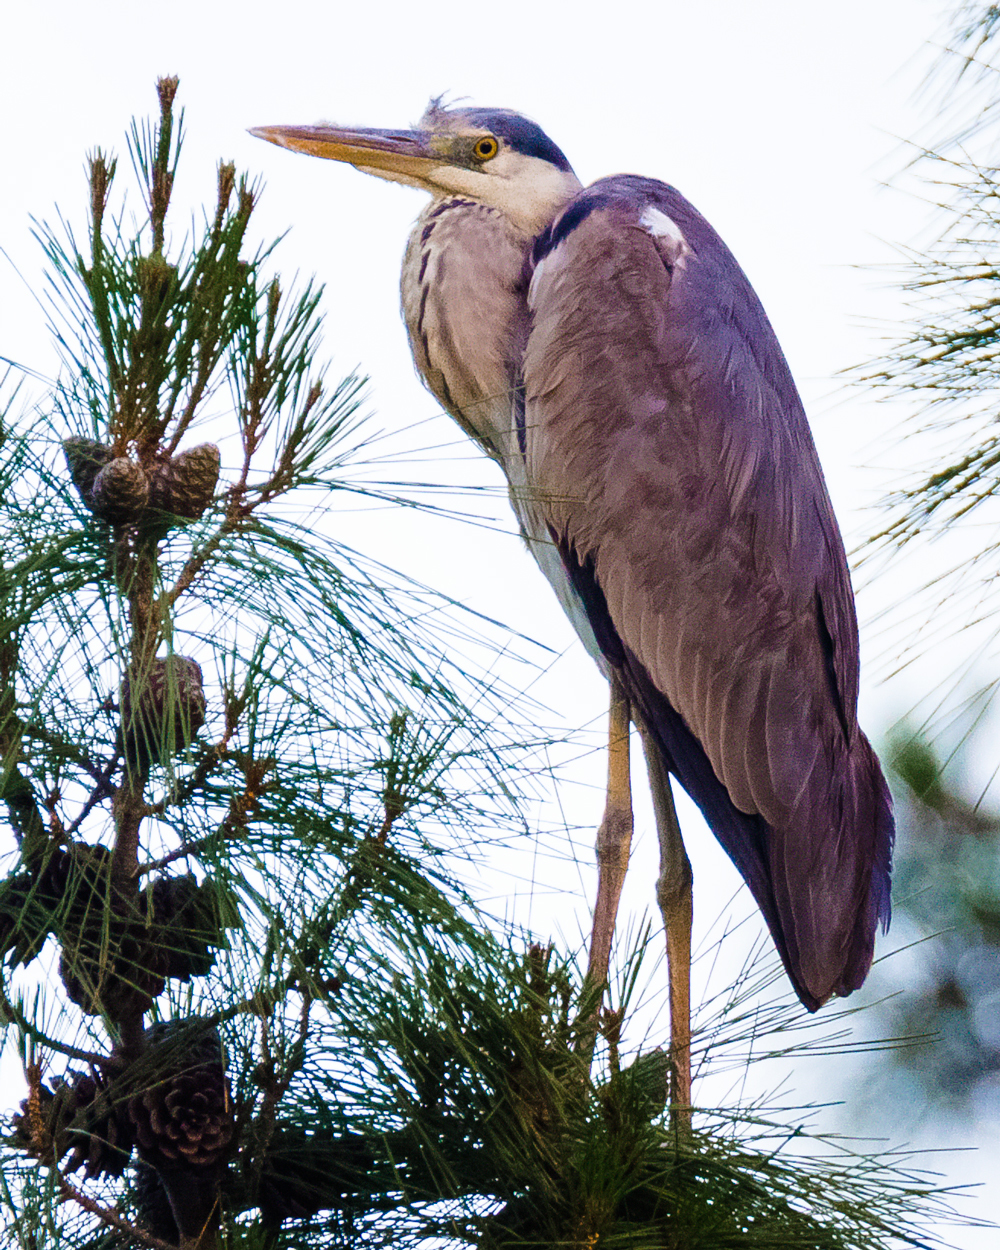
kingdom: Animalia
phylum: Chordata
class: Aves
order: Pelecaniformes
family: Ardeidae
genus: Ardea
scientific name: Ardea cinerea
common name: Grey heron
